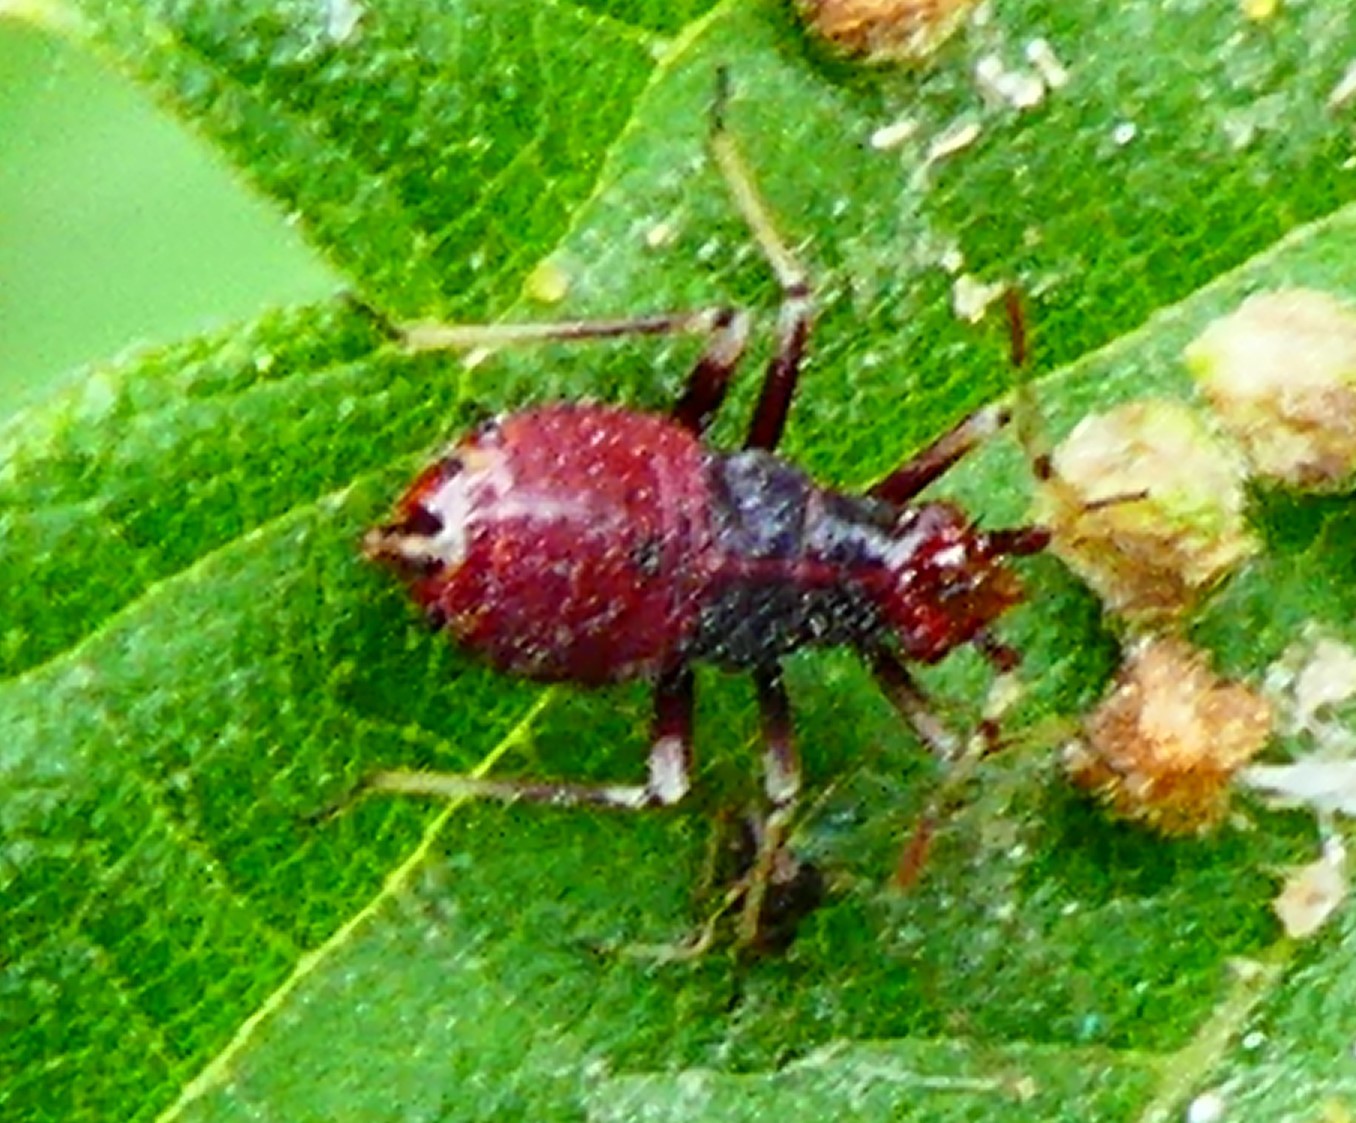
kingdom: Animalia
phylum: Arthropoda
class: Insecta
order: Hemiptera
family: Miridae
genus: Deraeocoris
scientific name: Deraeocoris ruber
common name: Plant bug
